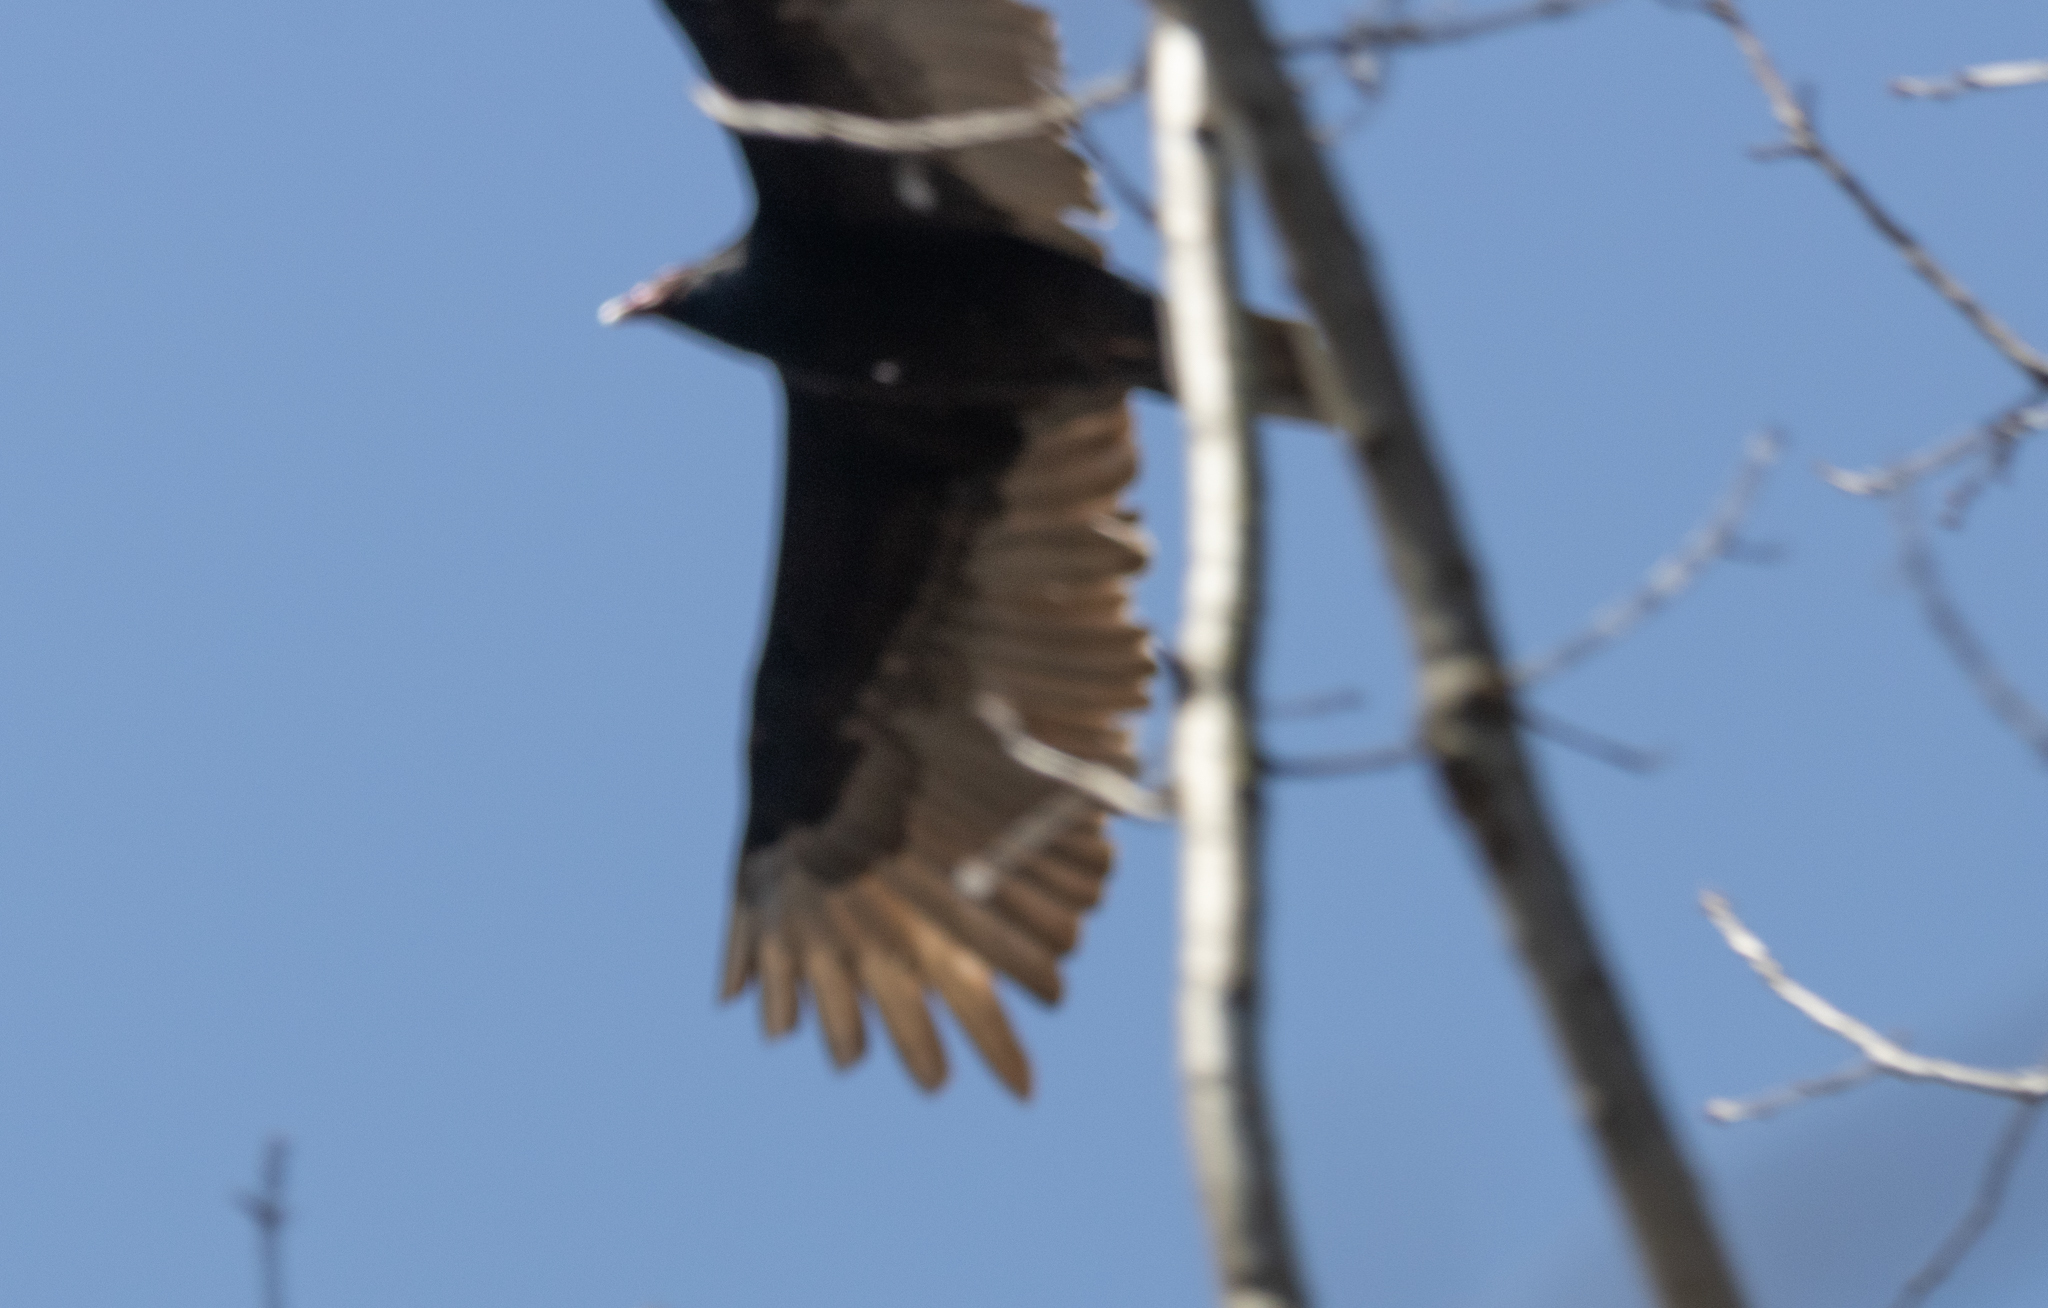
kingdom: Animalia
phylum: Chordata
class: Aves
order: Accipitriformes
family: Cathartidae
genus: Cathartes
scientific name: Cathartes aura
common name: Turkey vulture
